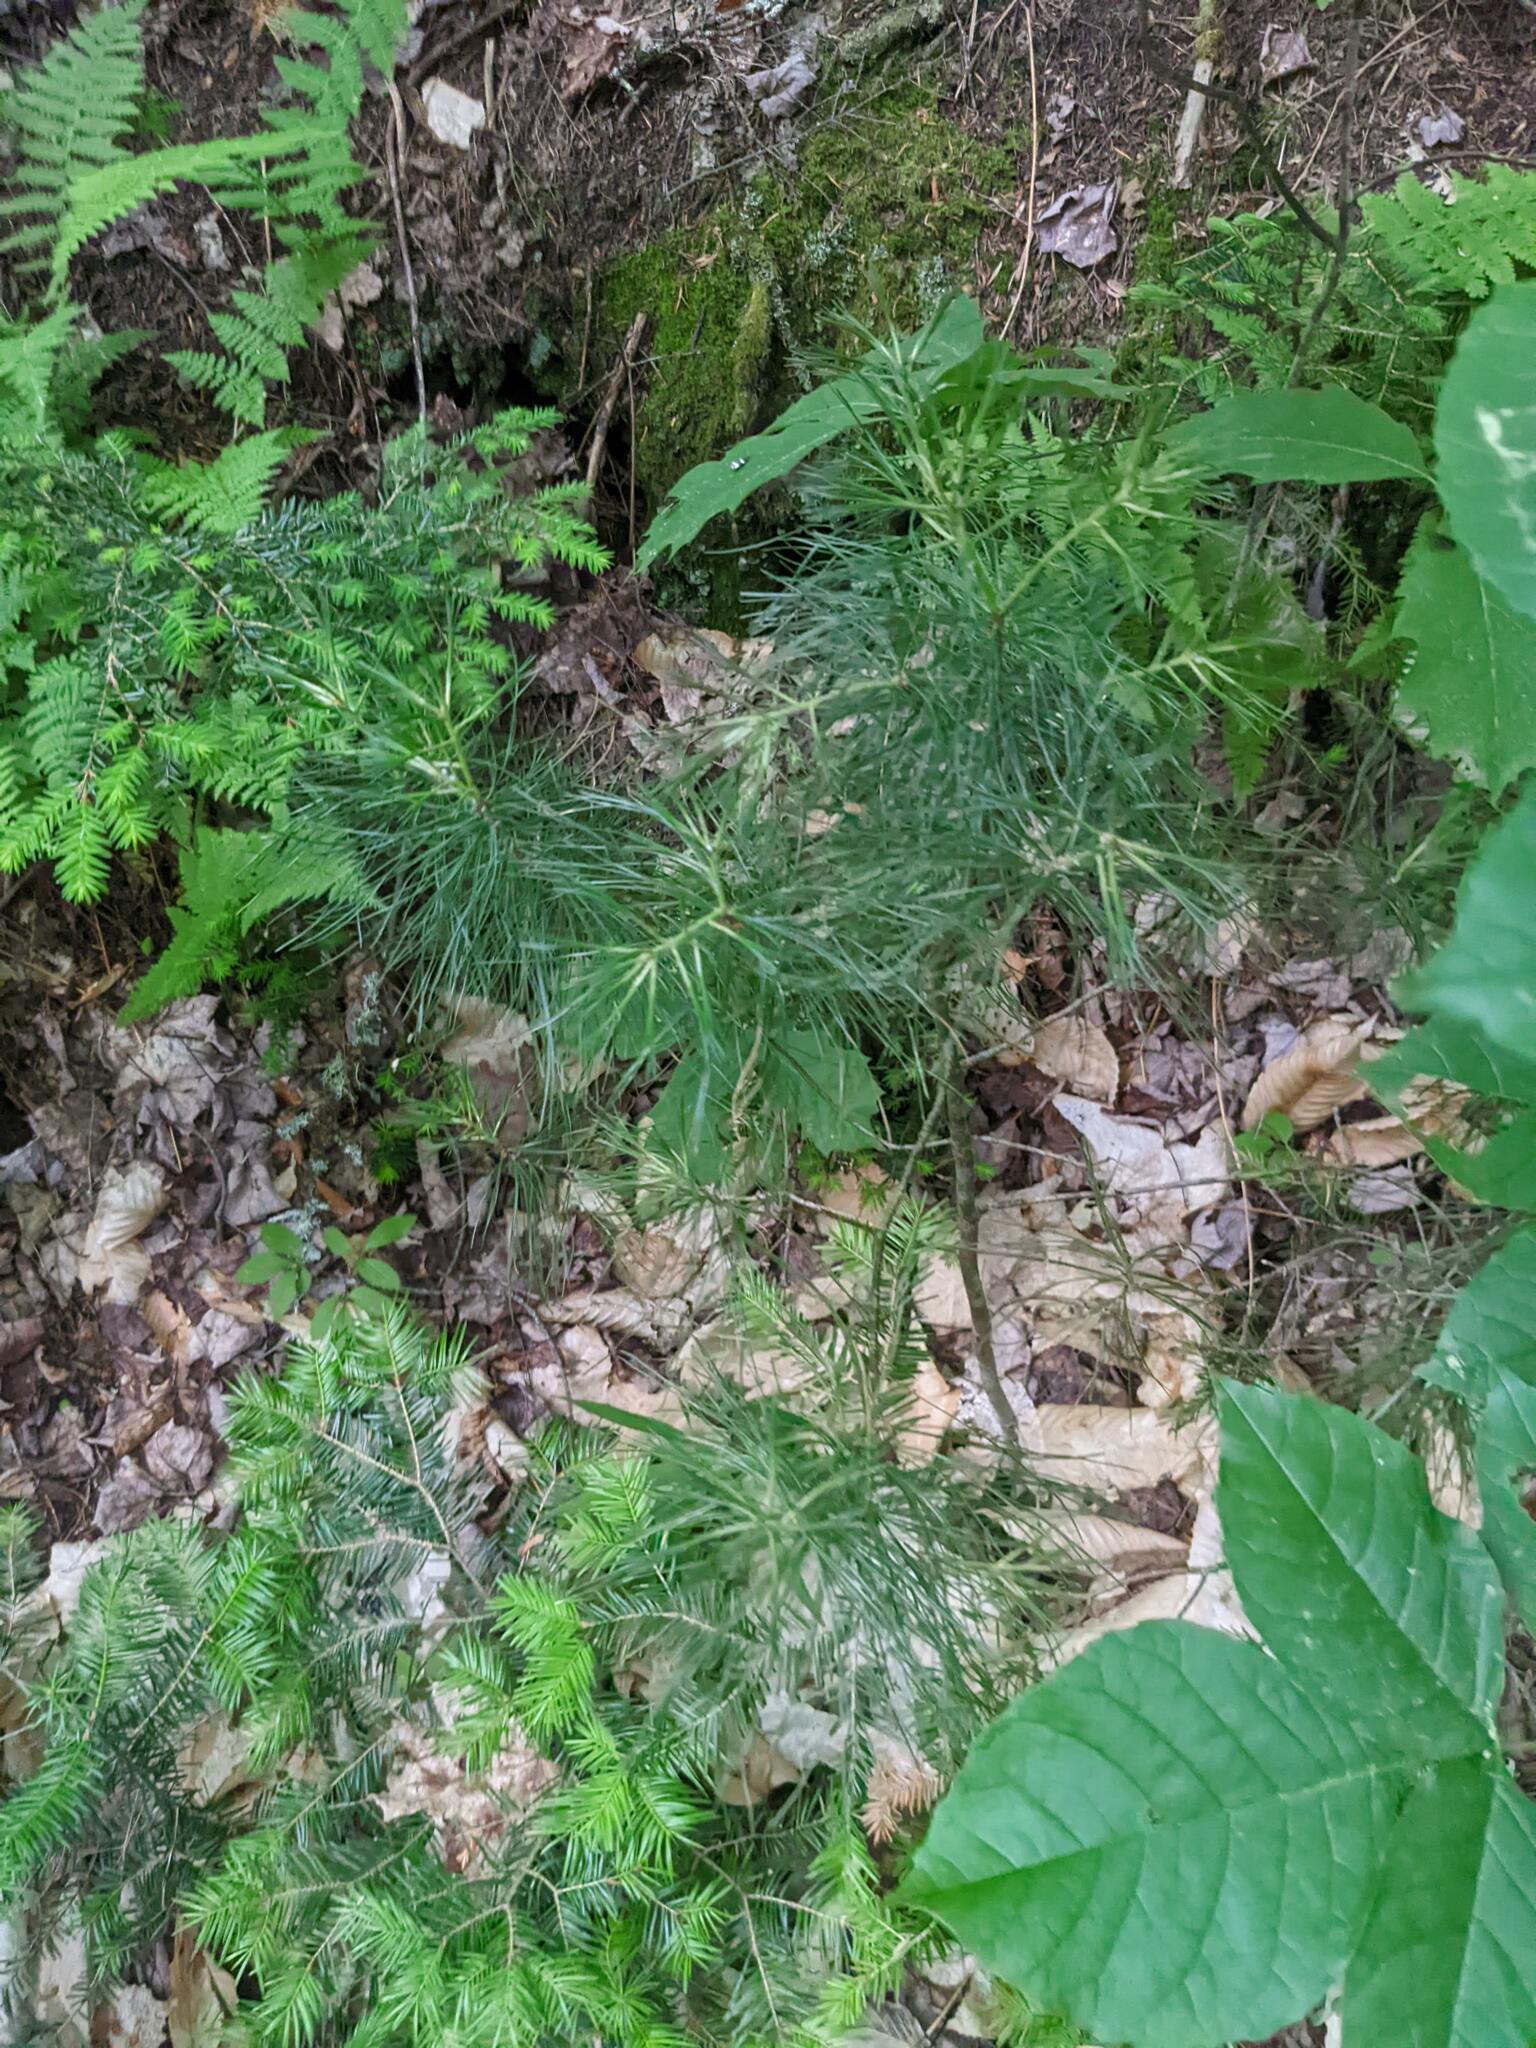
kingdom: Plantae
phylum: Tracheophyta
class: Pinopsida
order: Pinales
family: Pinaceae
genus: Pinus
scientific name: Pinus strobus
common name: Weymouth pine
